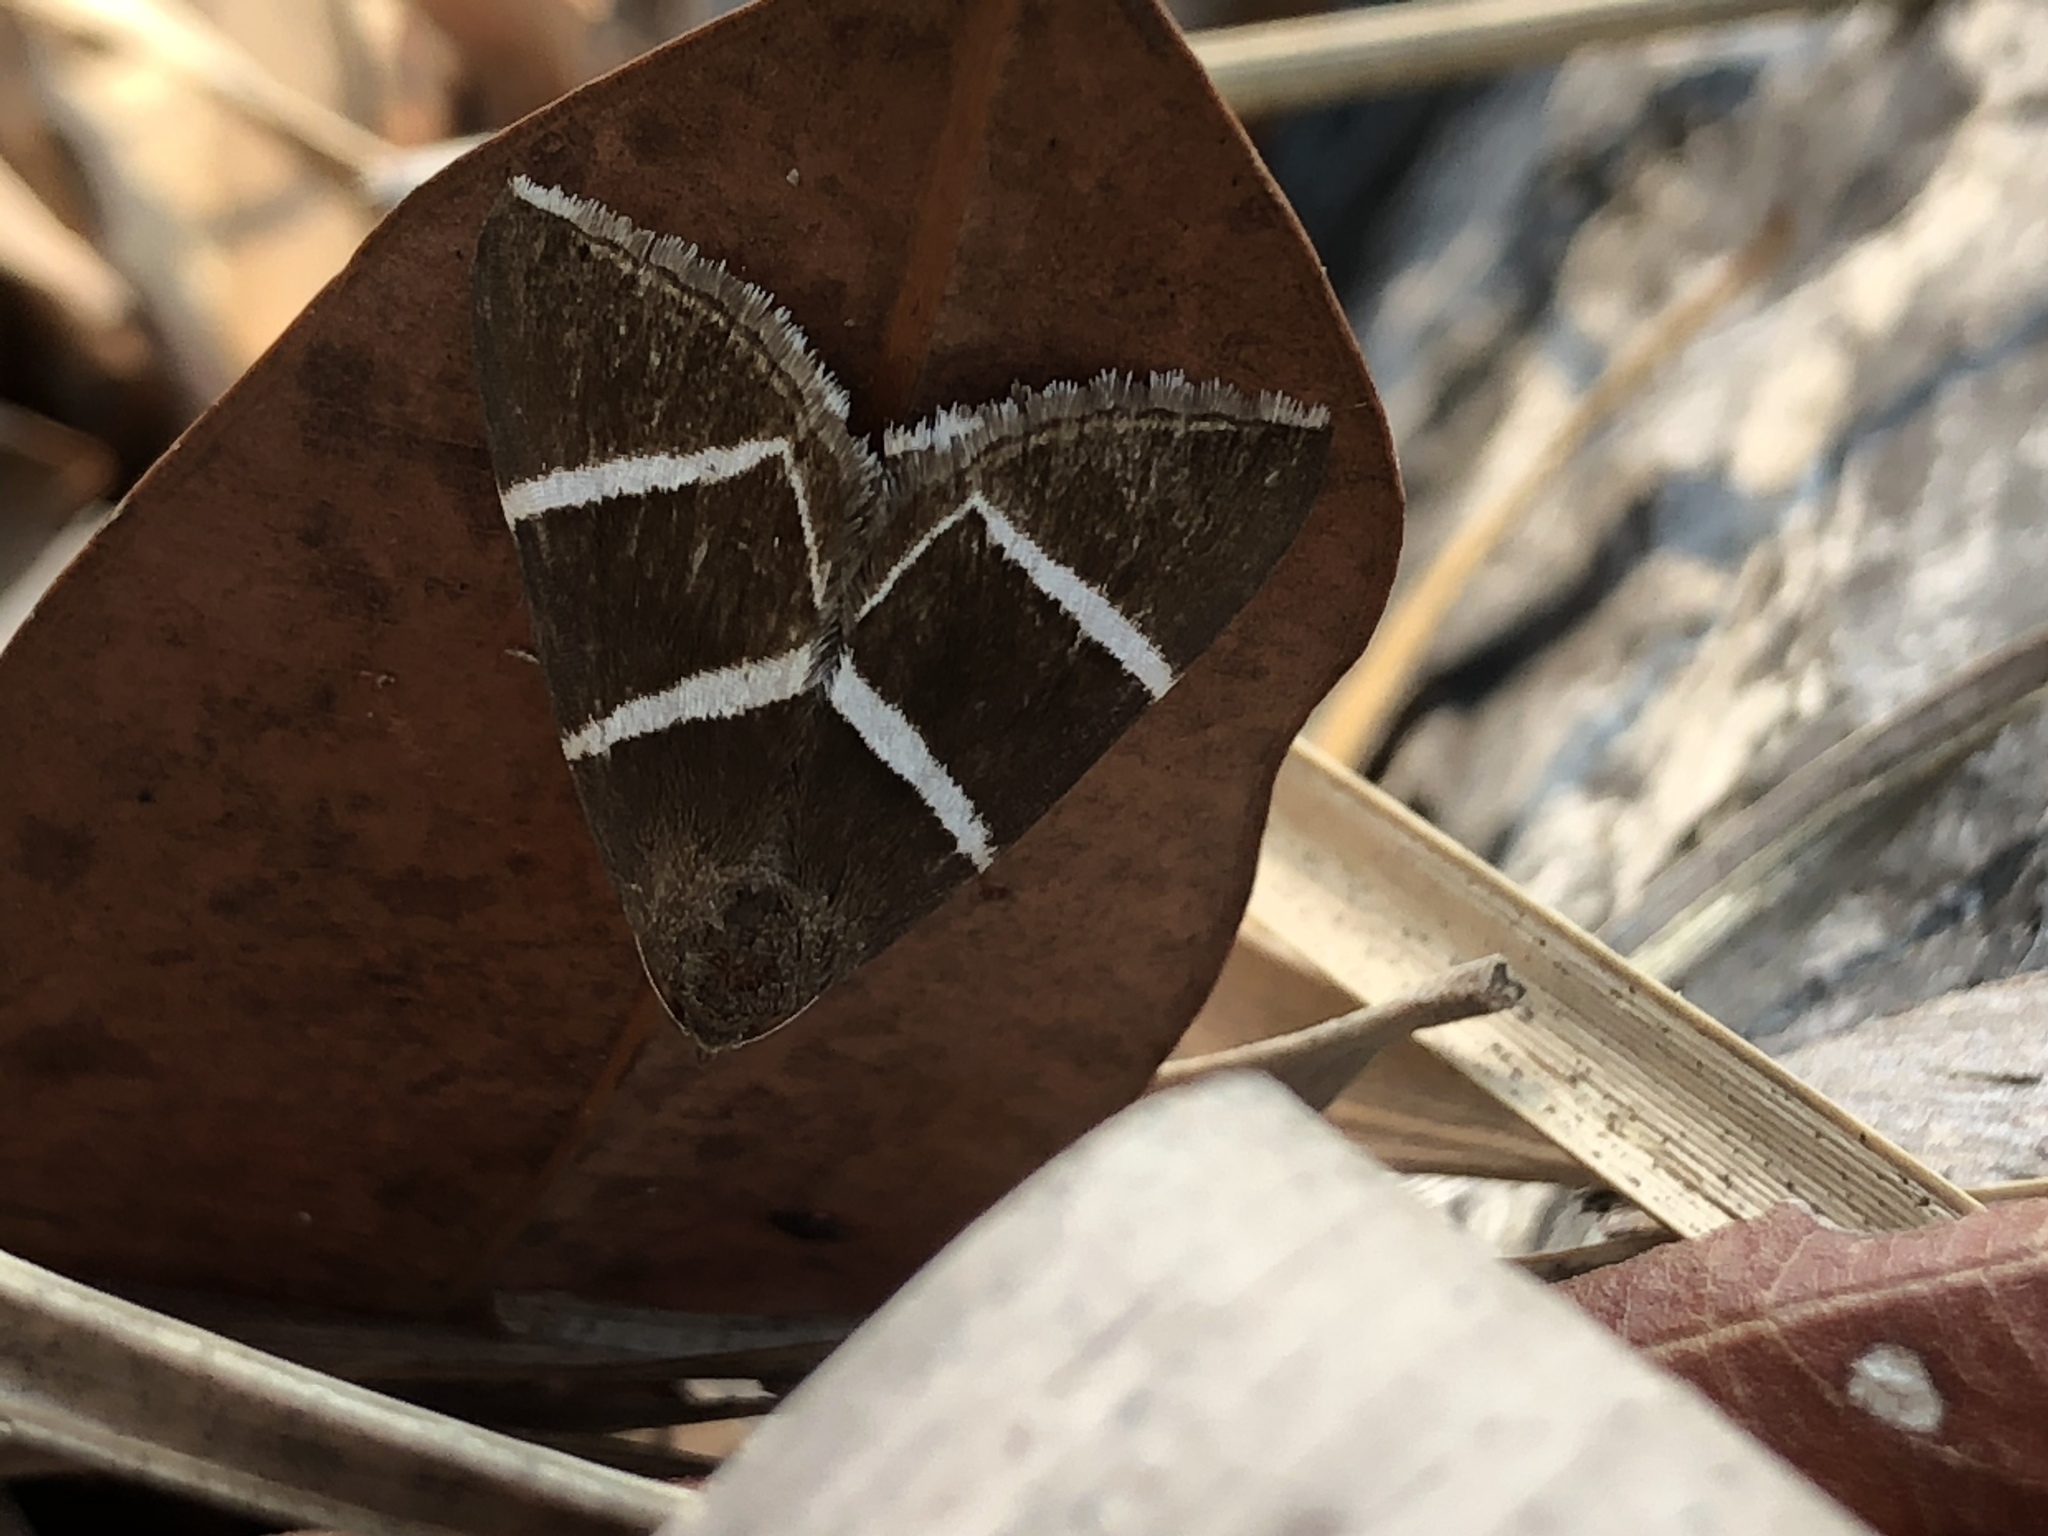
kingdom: Animalia
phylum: Arthropoda
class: Insecta
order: Lepidoptera
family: Erebidae
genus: Grammodes
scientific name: Grammodes justa
